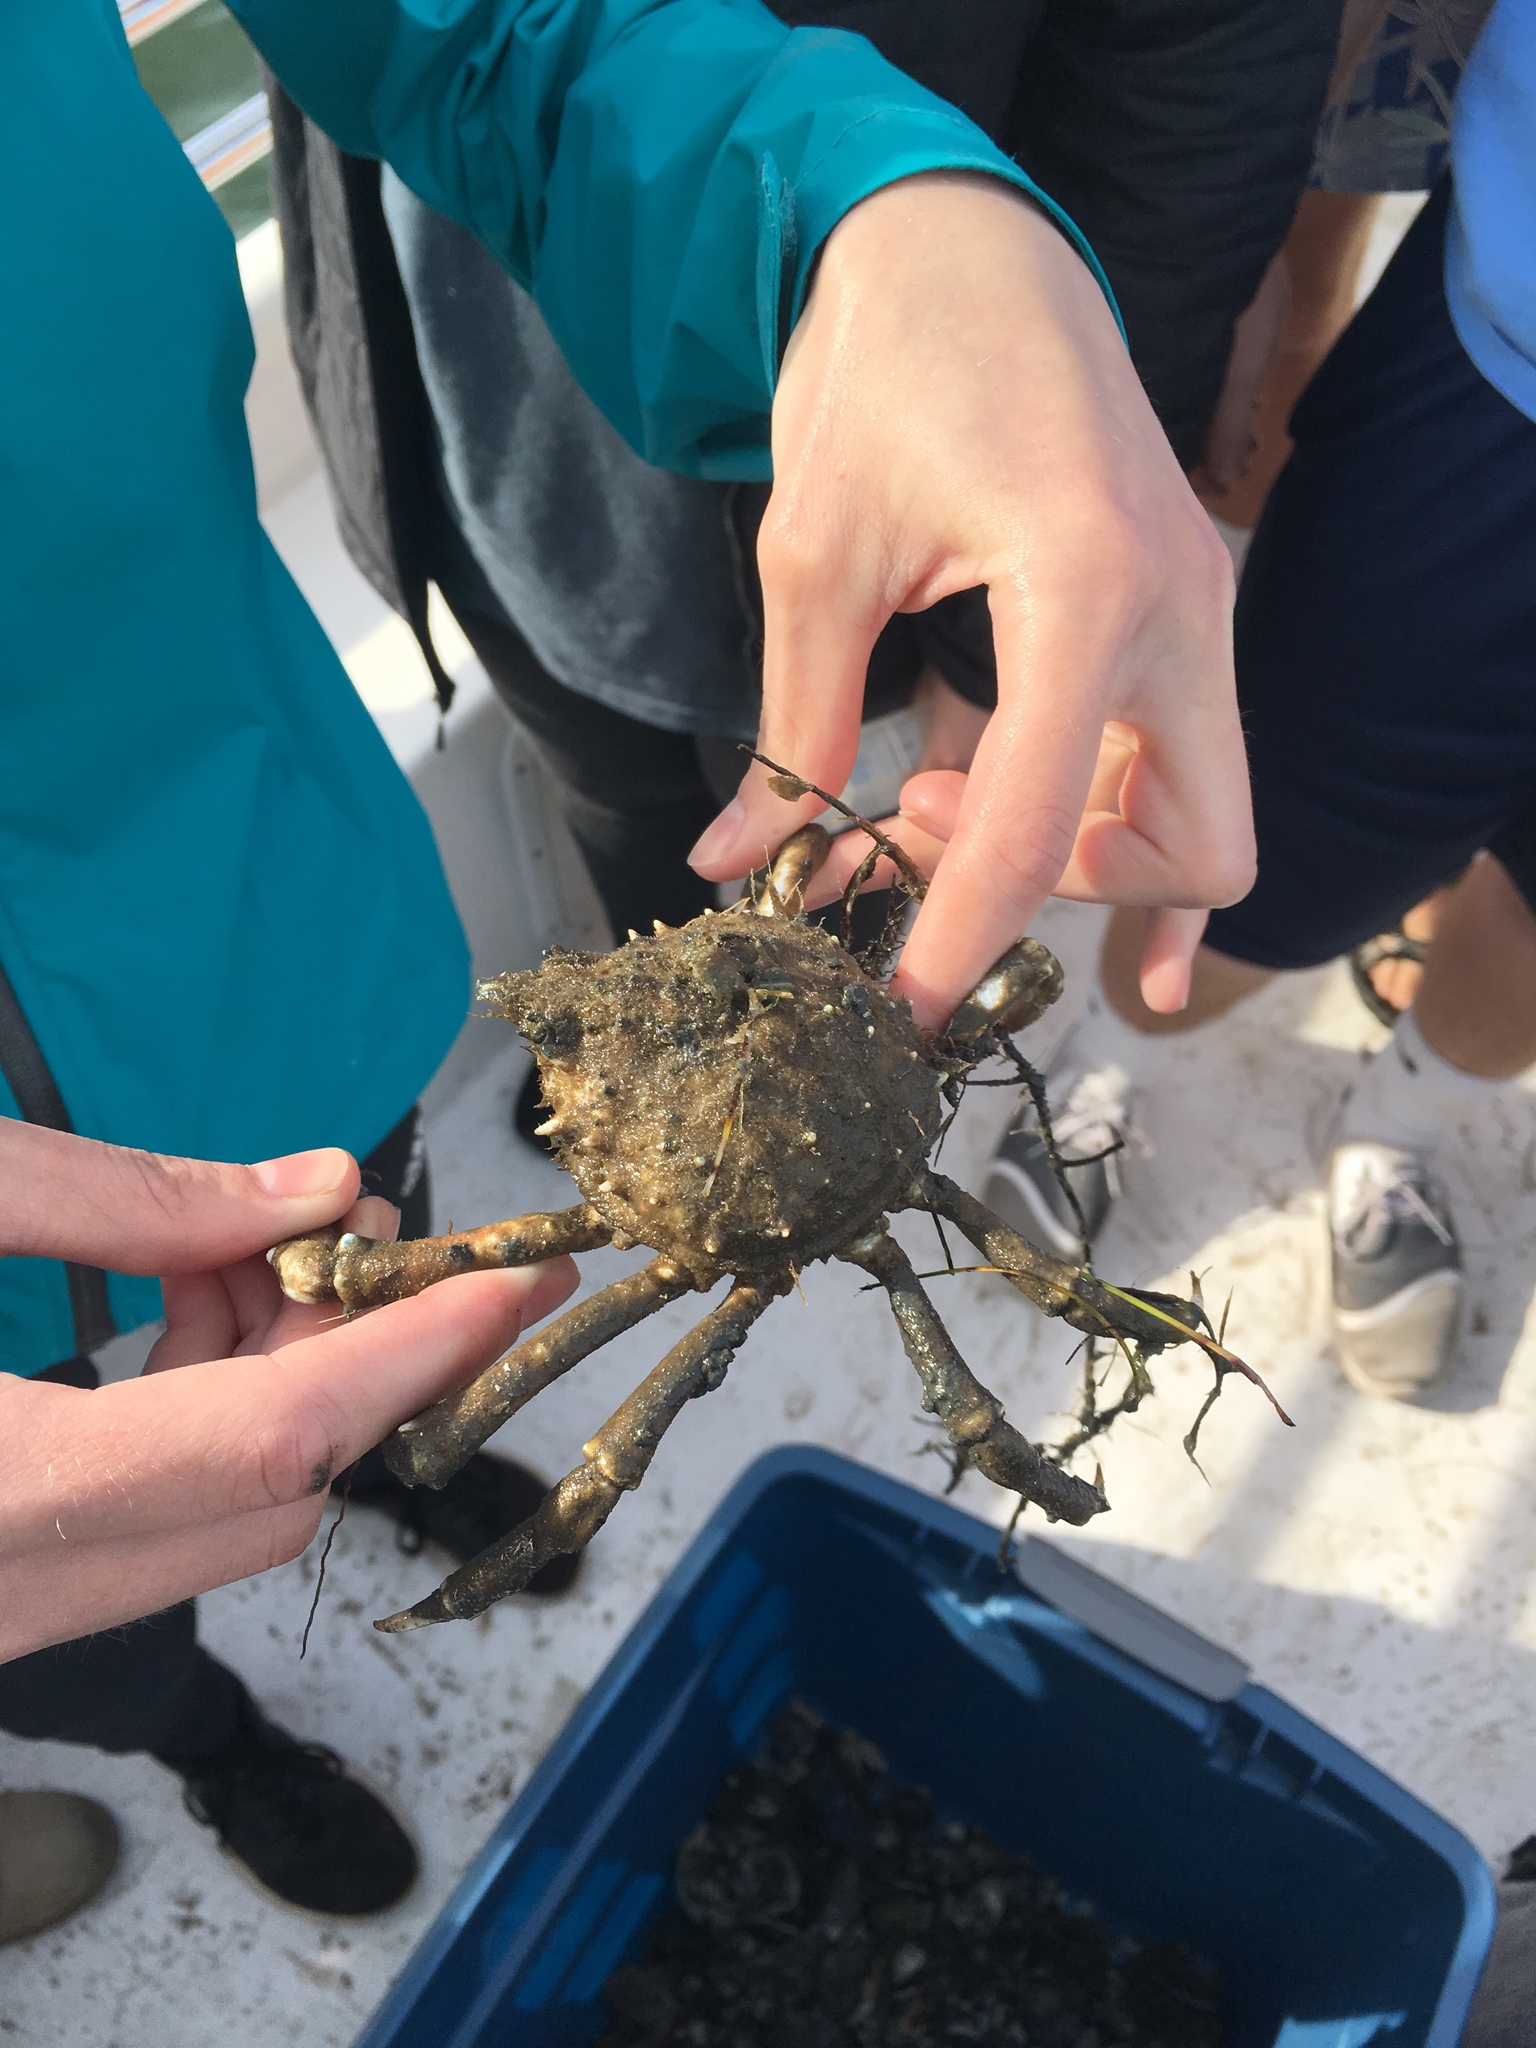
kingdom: Animalia
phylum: Arthropoda
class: Malacostraca
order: Decapoda
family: Epialtidae
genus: Libinia
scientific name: Libinia emarginata
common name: Common spider crab
